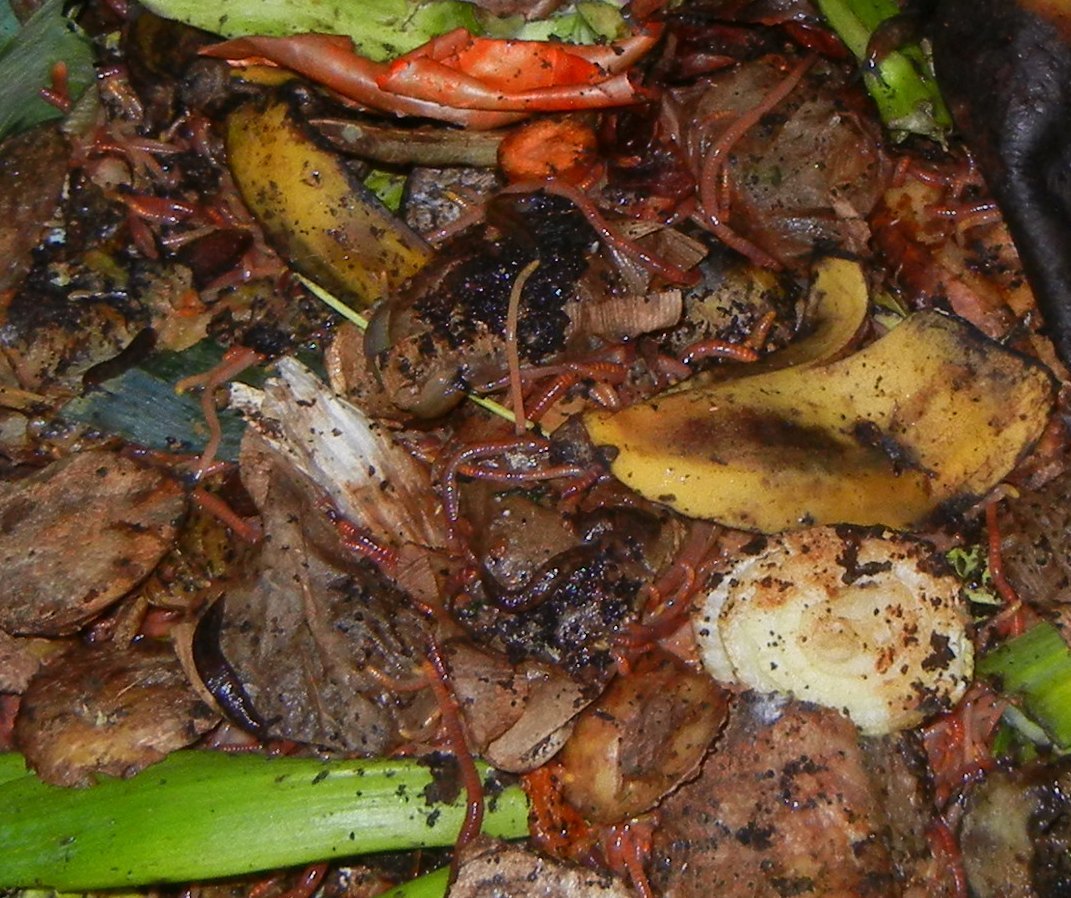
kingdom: Animalia
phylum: Annelida
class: Clitellata
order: Crassiclitellata
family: Lumbricidae
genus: Eisenia
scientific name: Eisenia andrei
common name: Manure worm
